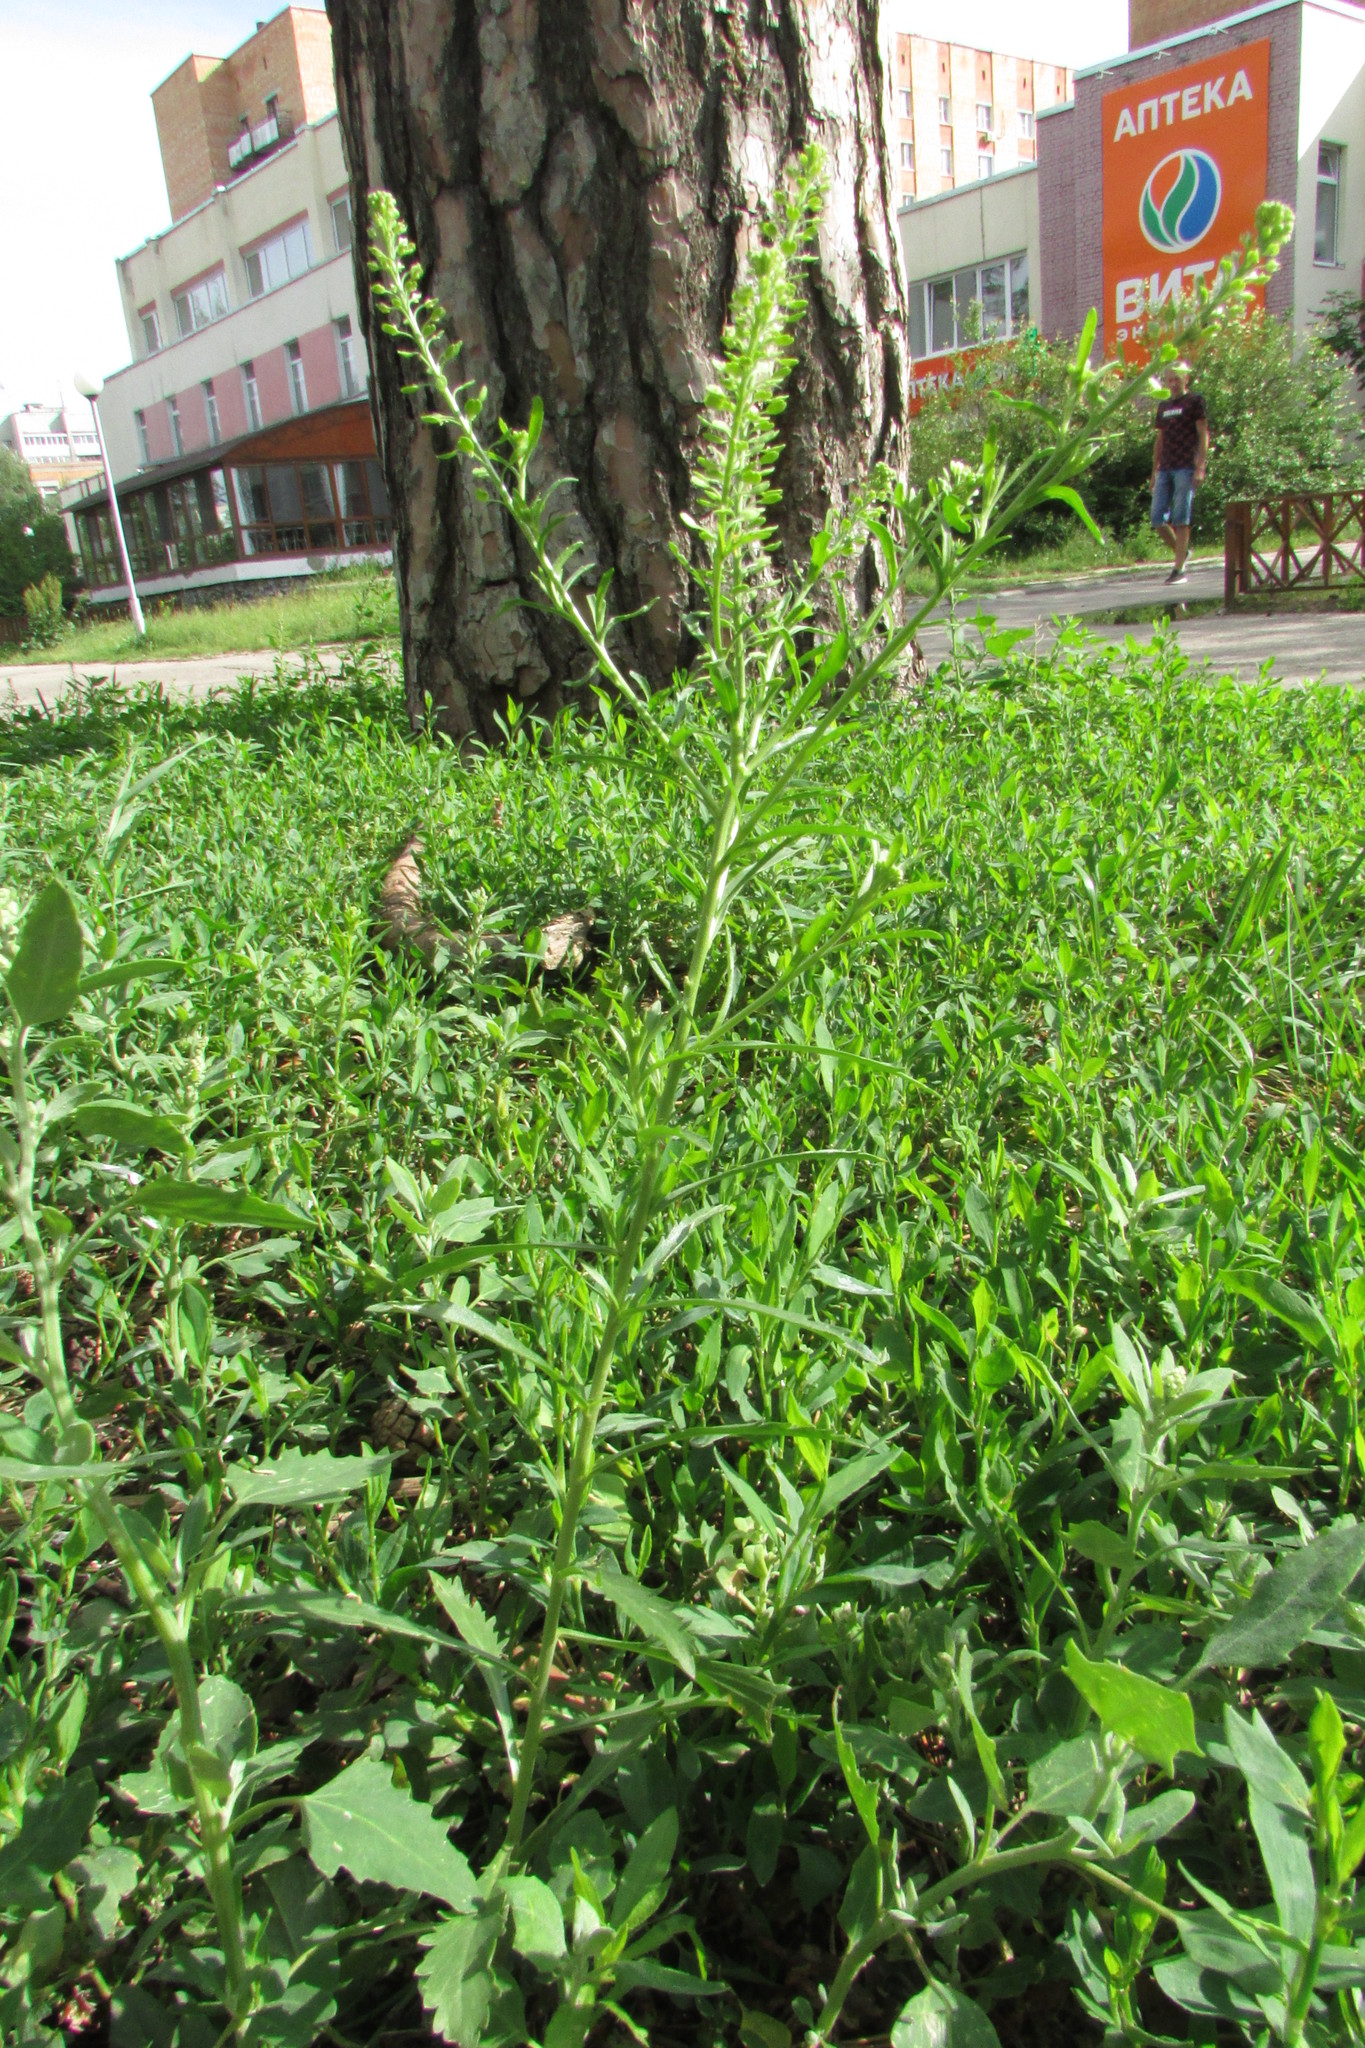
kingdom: Plantae
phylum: Tracheophyta
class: Magnoliopsida
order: Brassicales
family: Brassicaceae
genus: Lepidium
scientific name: Lepidium densiflorum
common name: Miner's pepperwort
